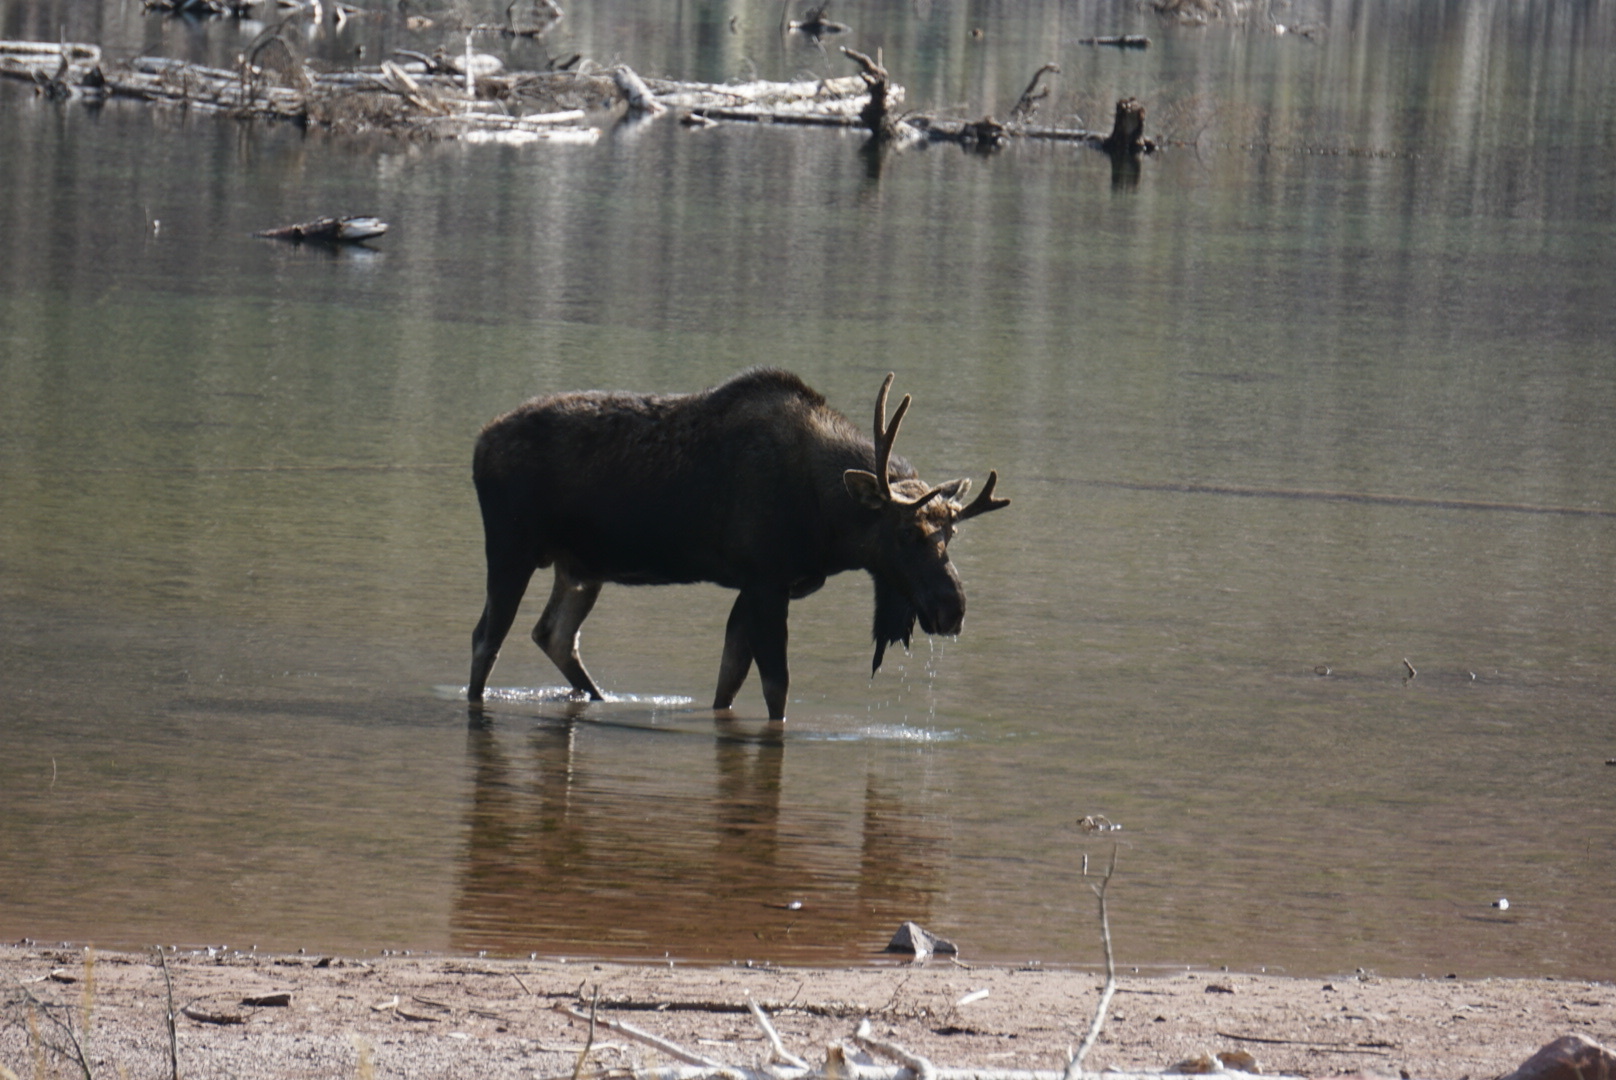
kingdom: Animalia
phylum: Chordata
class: Mammalia
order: Artiodactyla
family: Cervidae
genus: Alces
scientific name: Alces alces
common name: Moose
